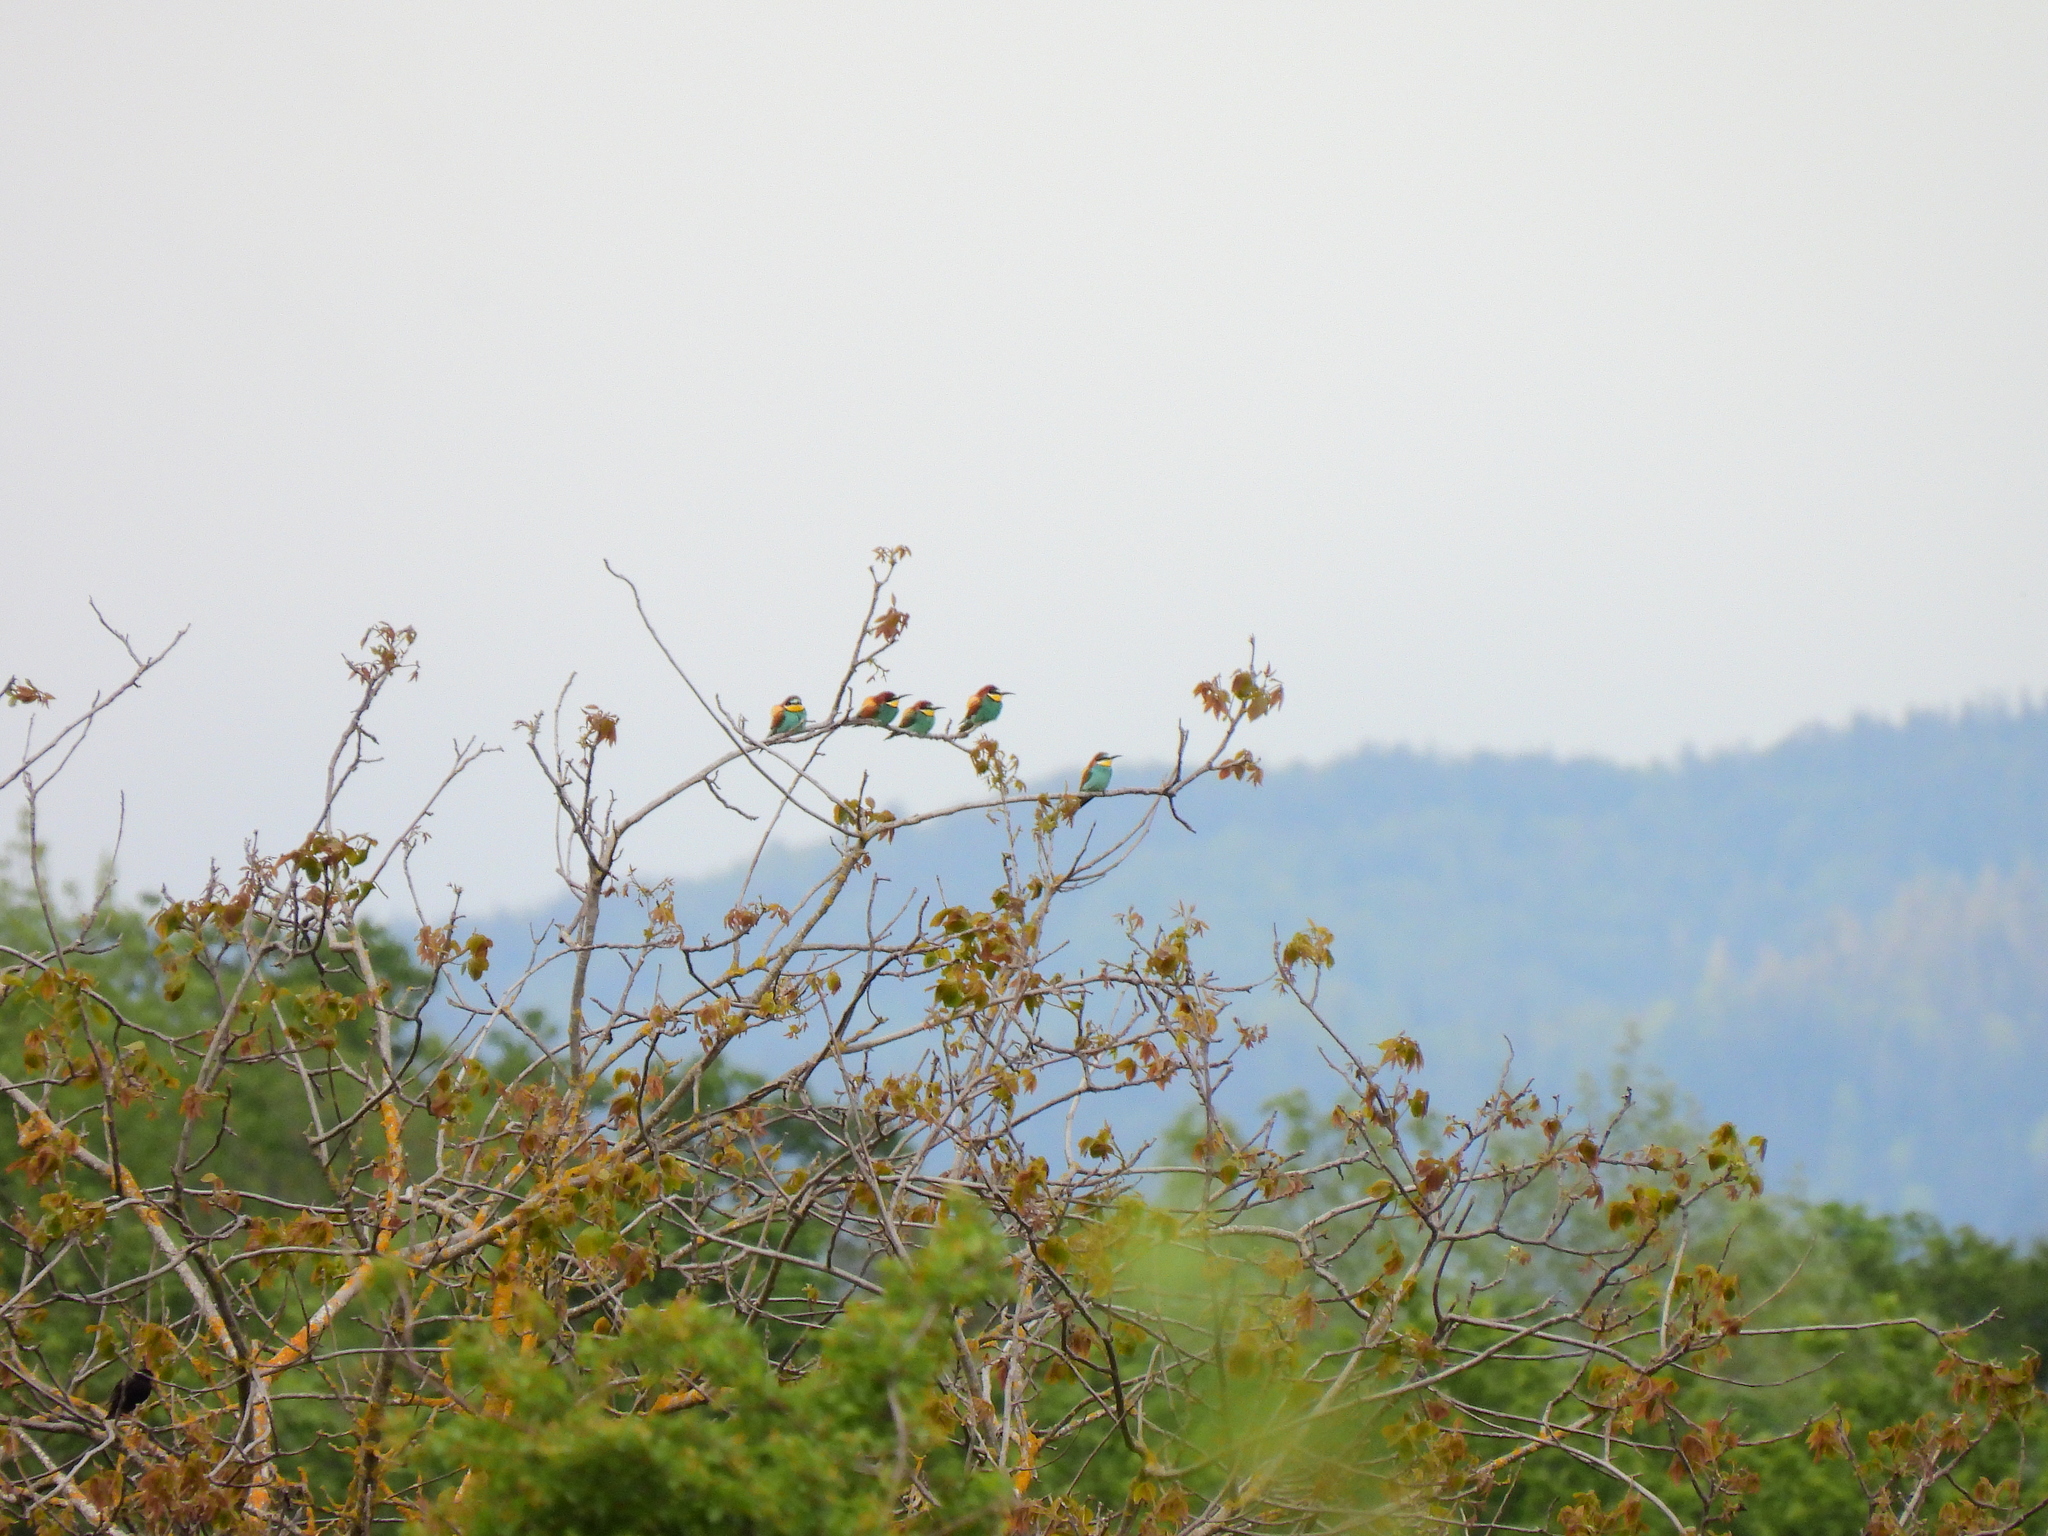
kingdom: Animalia
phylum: Chordata
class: Aves
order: Coraciiformes
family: Meropidae
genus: Merops
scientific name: Merops apiaster
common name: European bee-eater
